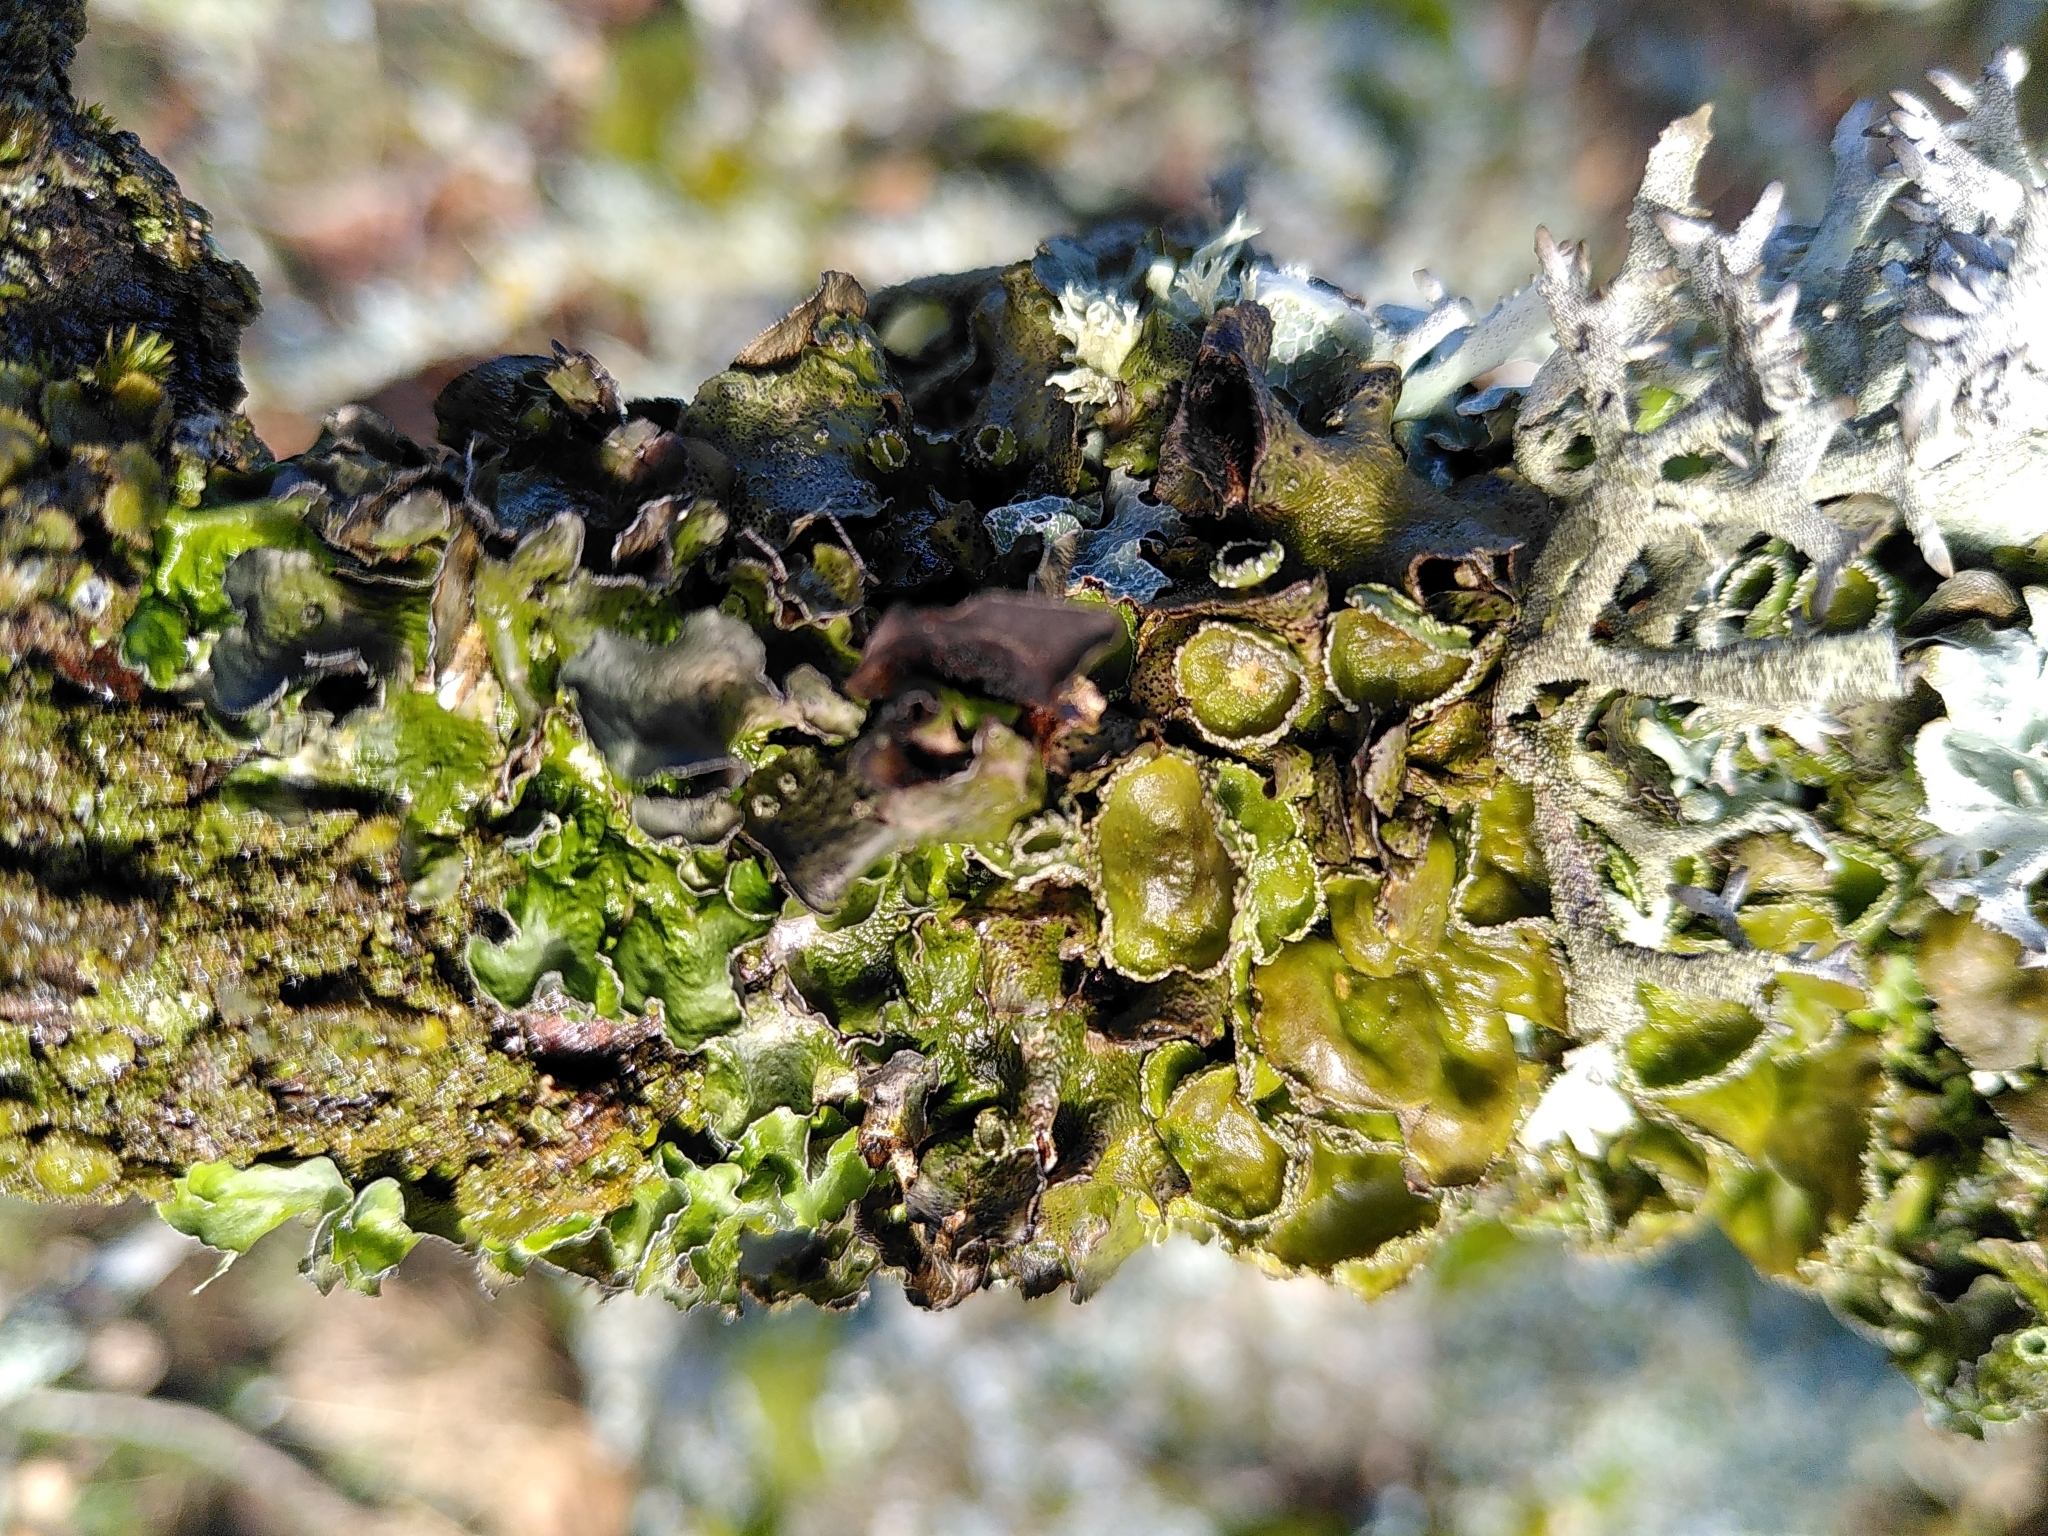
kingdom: Fungi
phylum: Ascomycota
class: Lecanoromycetes
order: Lecanorales
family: Parmeliaceae
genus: Pleurosticta
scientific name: Pleurosticta acetabulum
